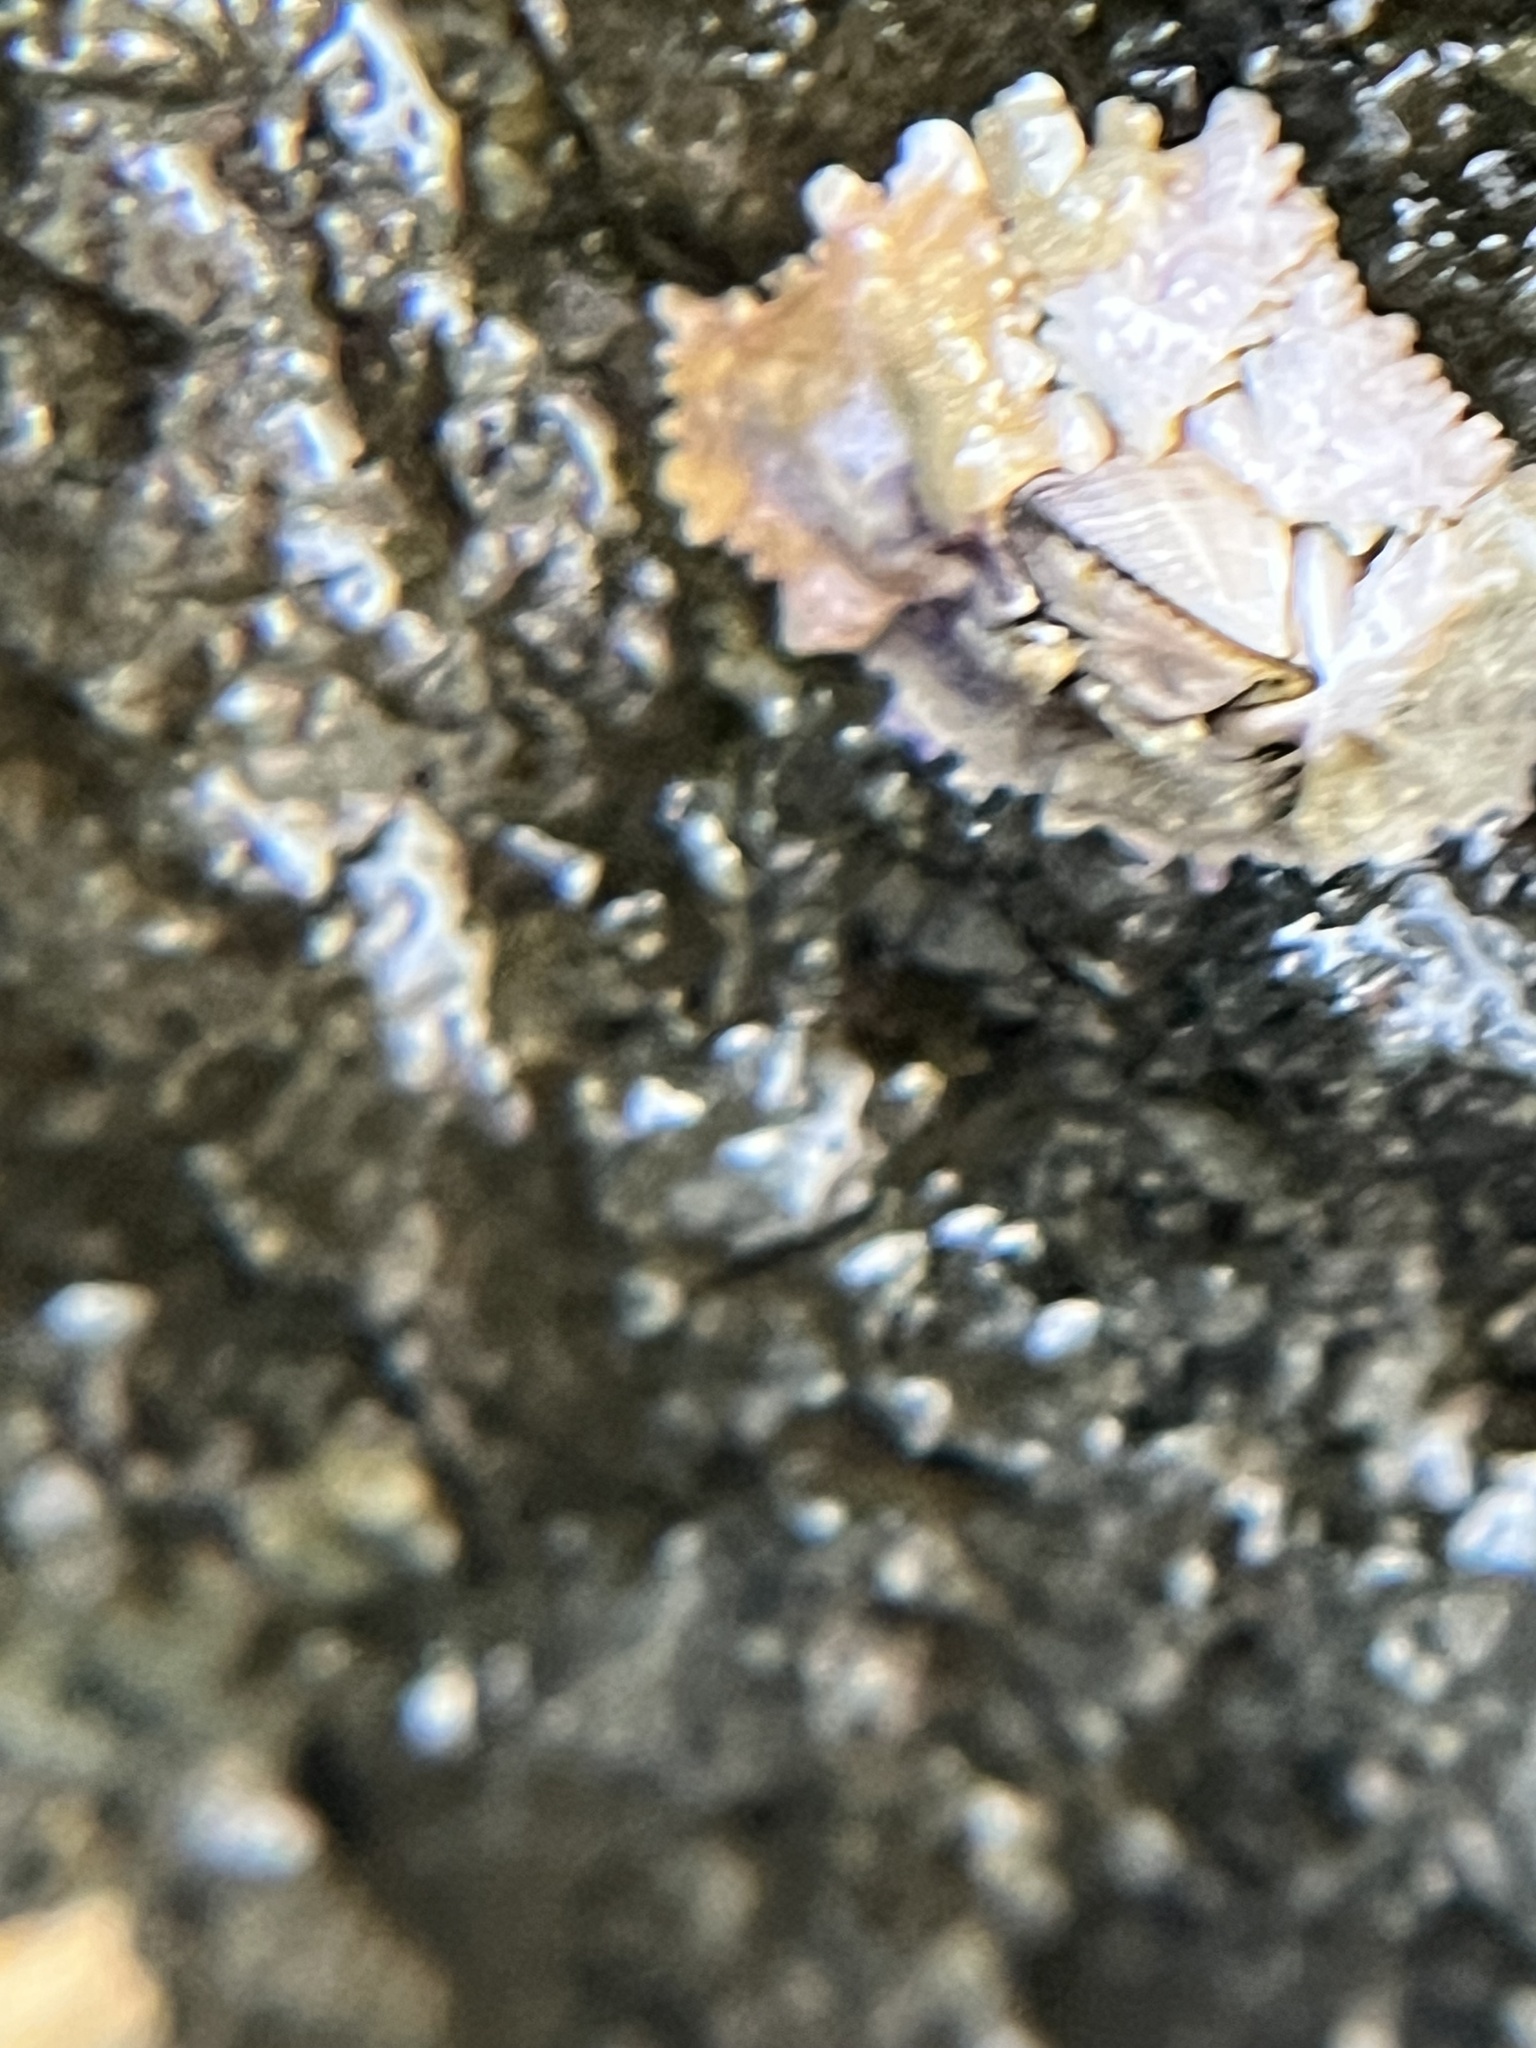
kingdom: Animalia
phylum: Arthropoda
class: Maxillopoda
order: Sessilia
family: Chthamalidae
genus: Nesochthamalus
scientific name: Nesochthamalus intertextus
